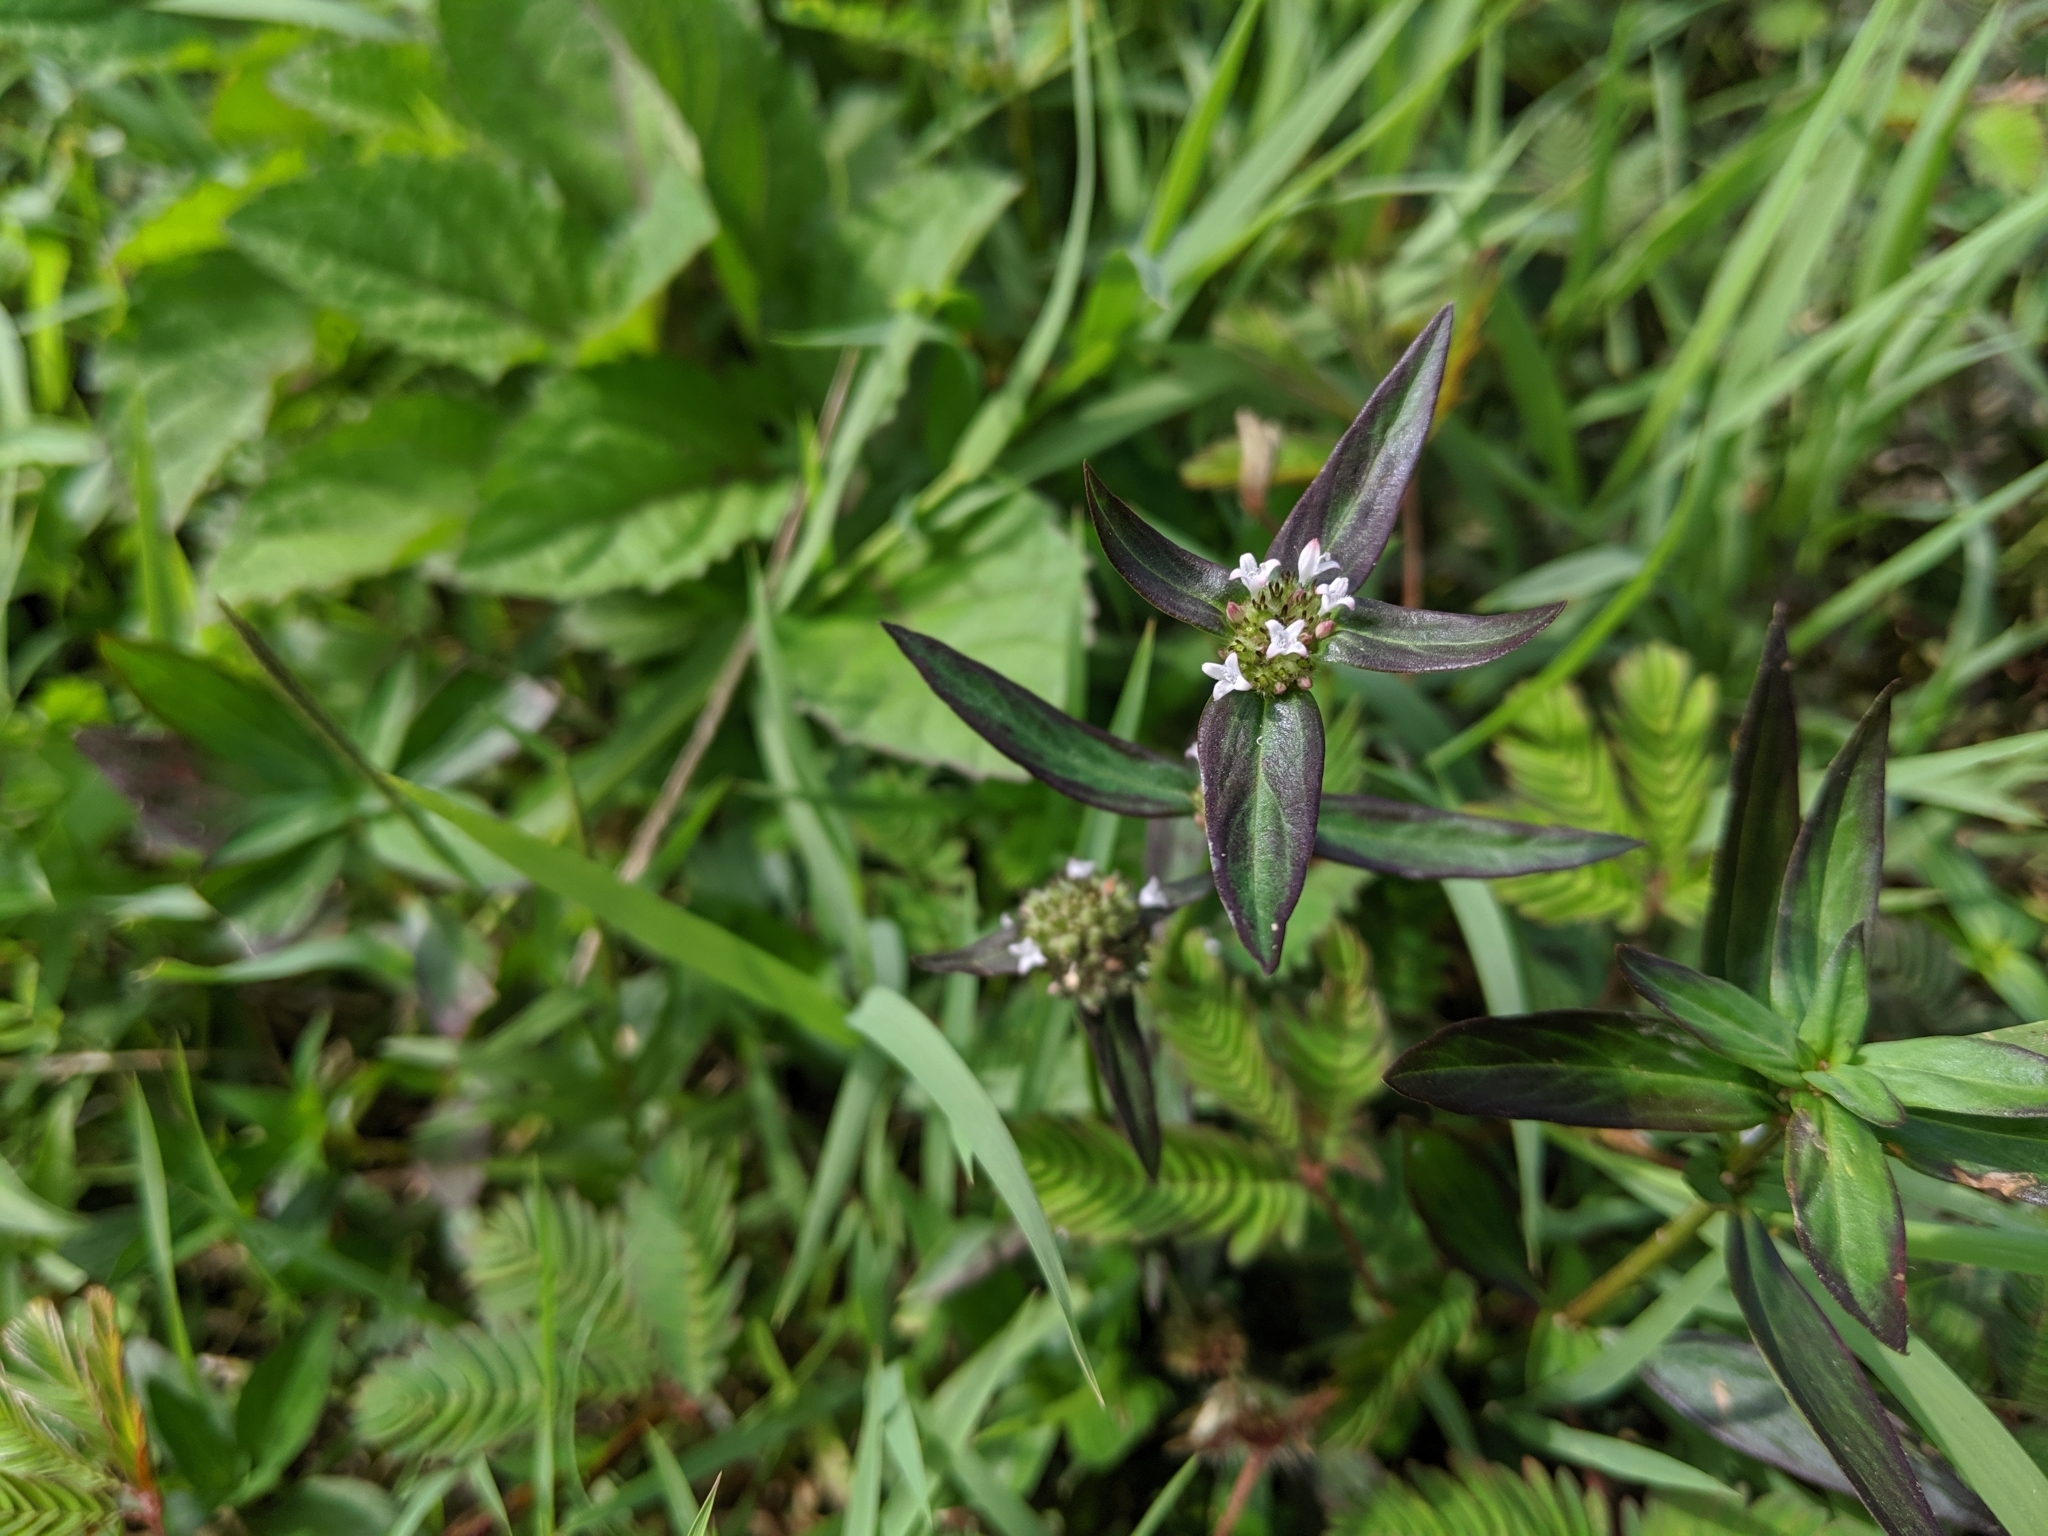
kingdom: Plantae
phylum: Tracheophyta
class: Magnoliopsida
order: Gentianales
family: Rubiaceae
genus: Spermacoce
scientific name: Spermacoce remota
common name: Woodland false buttonweed
